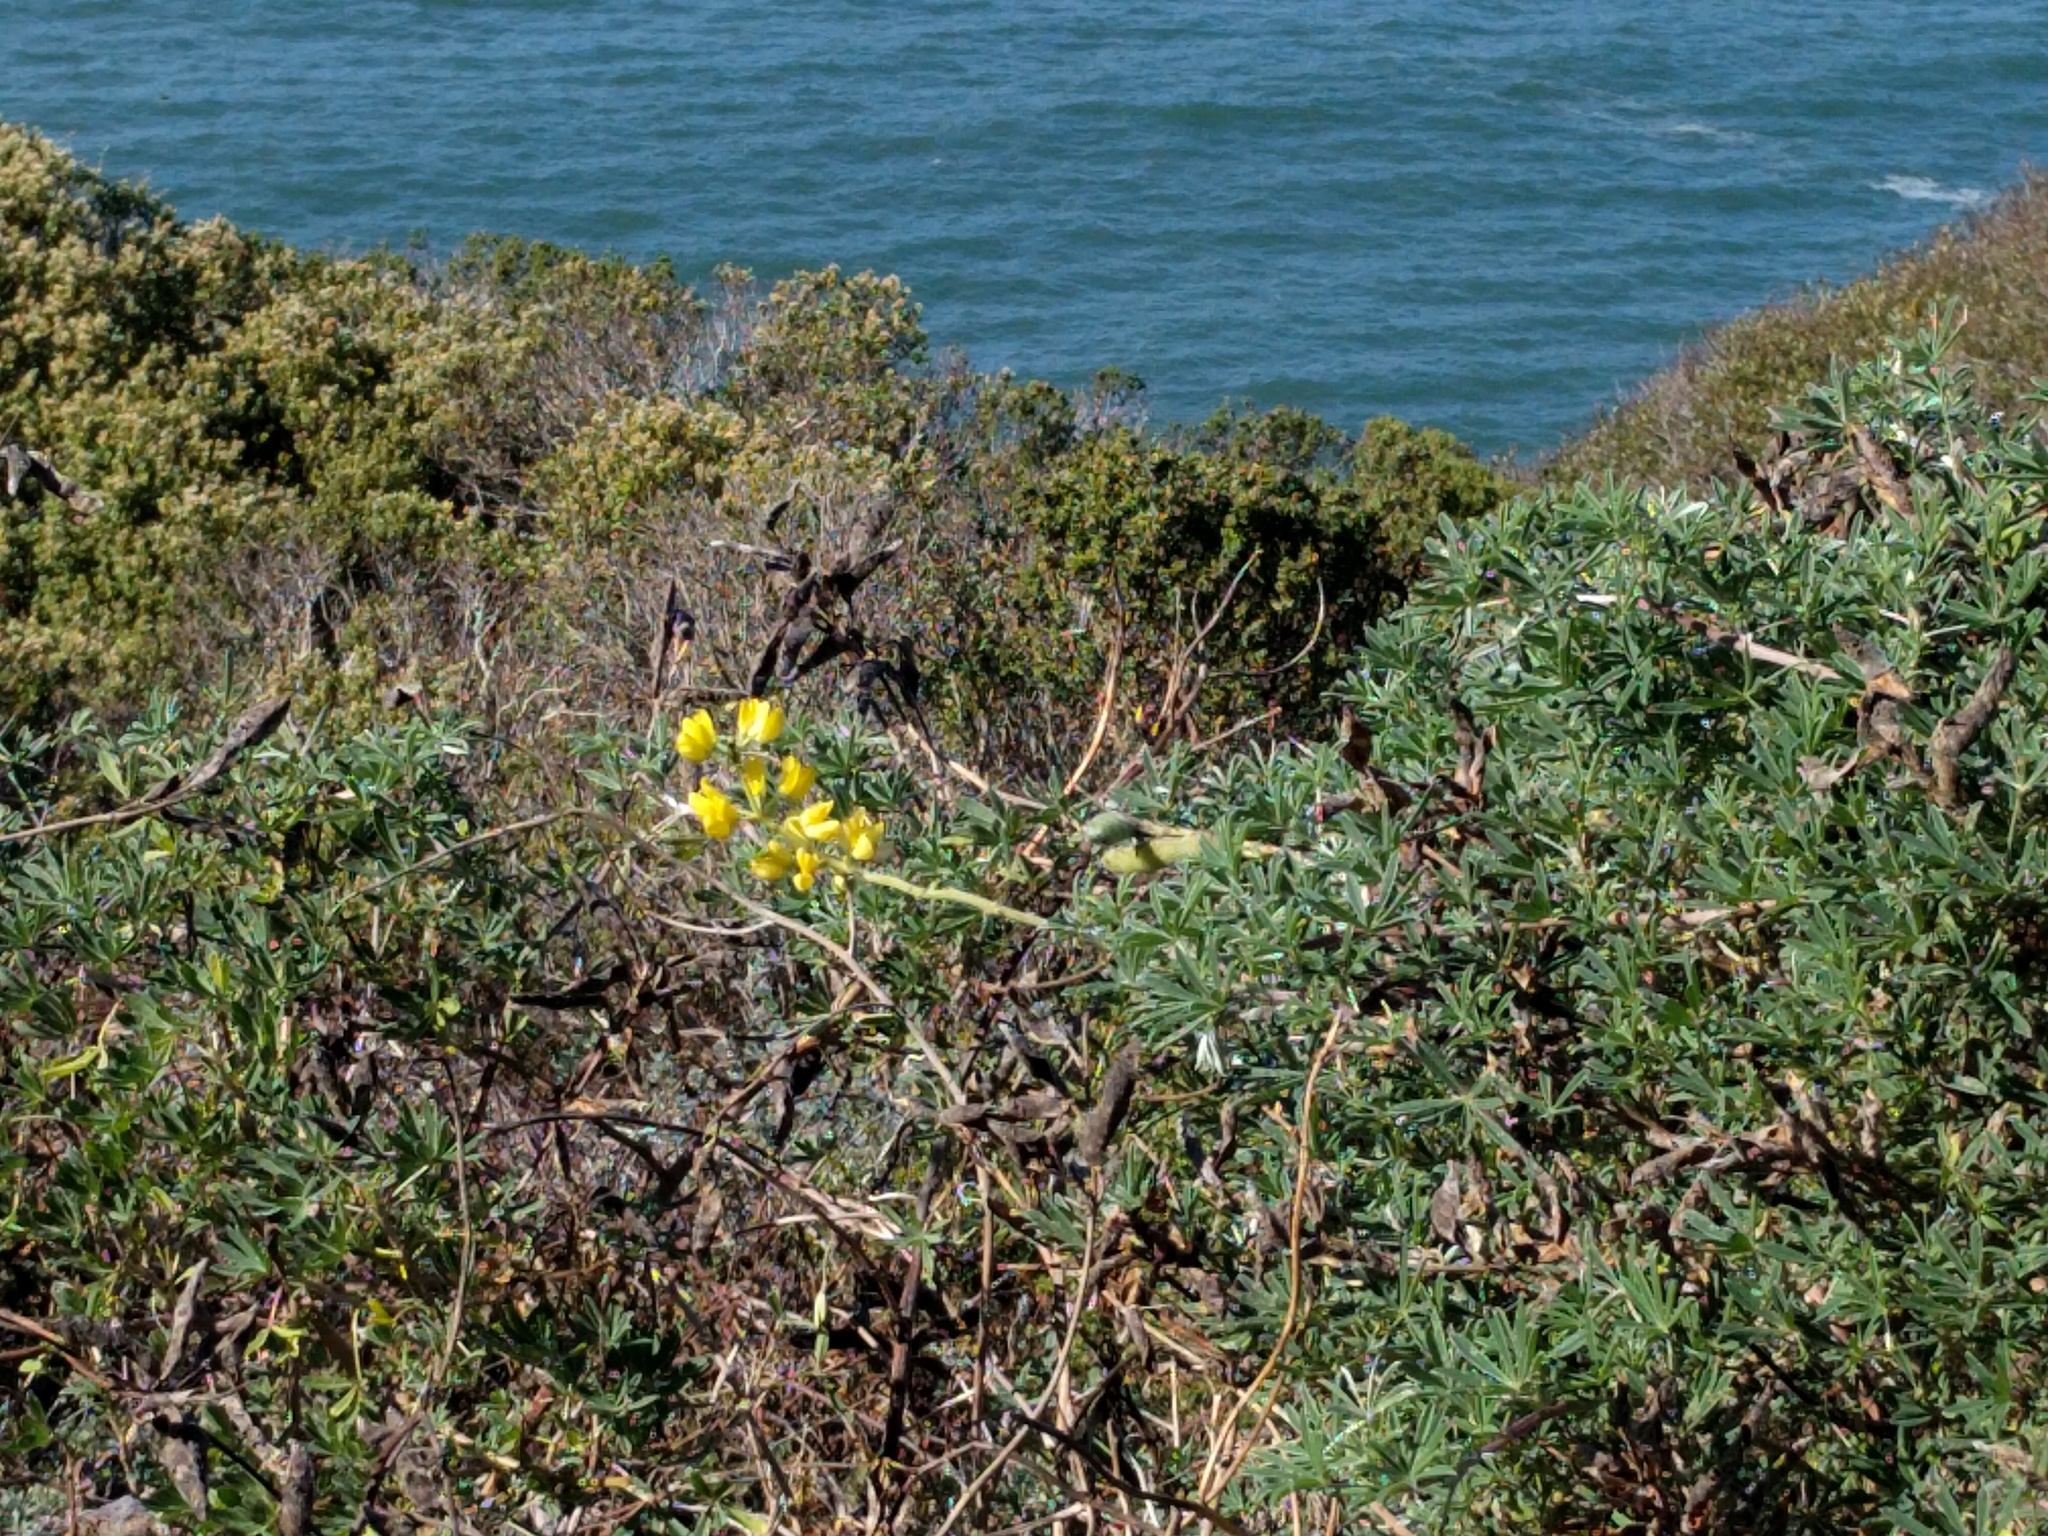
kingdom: Plantae
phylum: Tracheophyta
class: Magnoliopsida
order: Fabales
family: Fabaceae
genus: Lupinus
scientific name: Lupinus arboreus
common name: Yellow bush lupine
